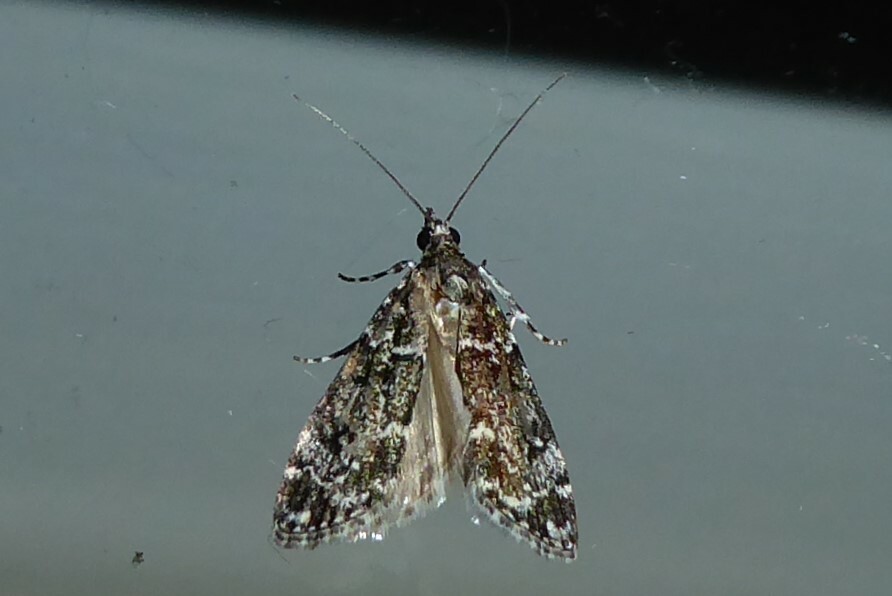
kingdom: Animalia
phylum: Arthropoda
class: Insecta
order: Lepidoptera
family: Crambidae
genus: Eudonia
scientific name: Eudonia philerga
